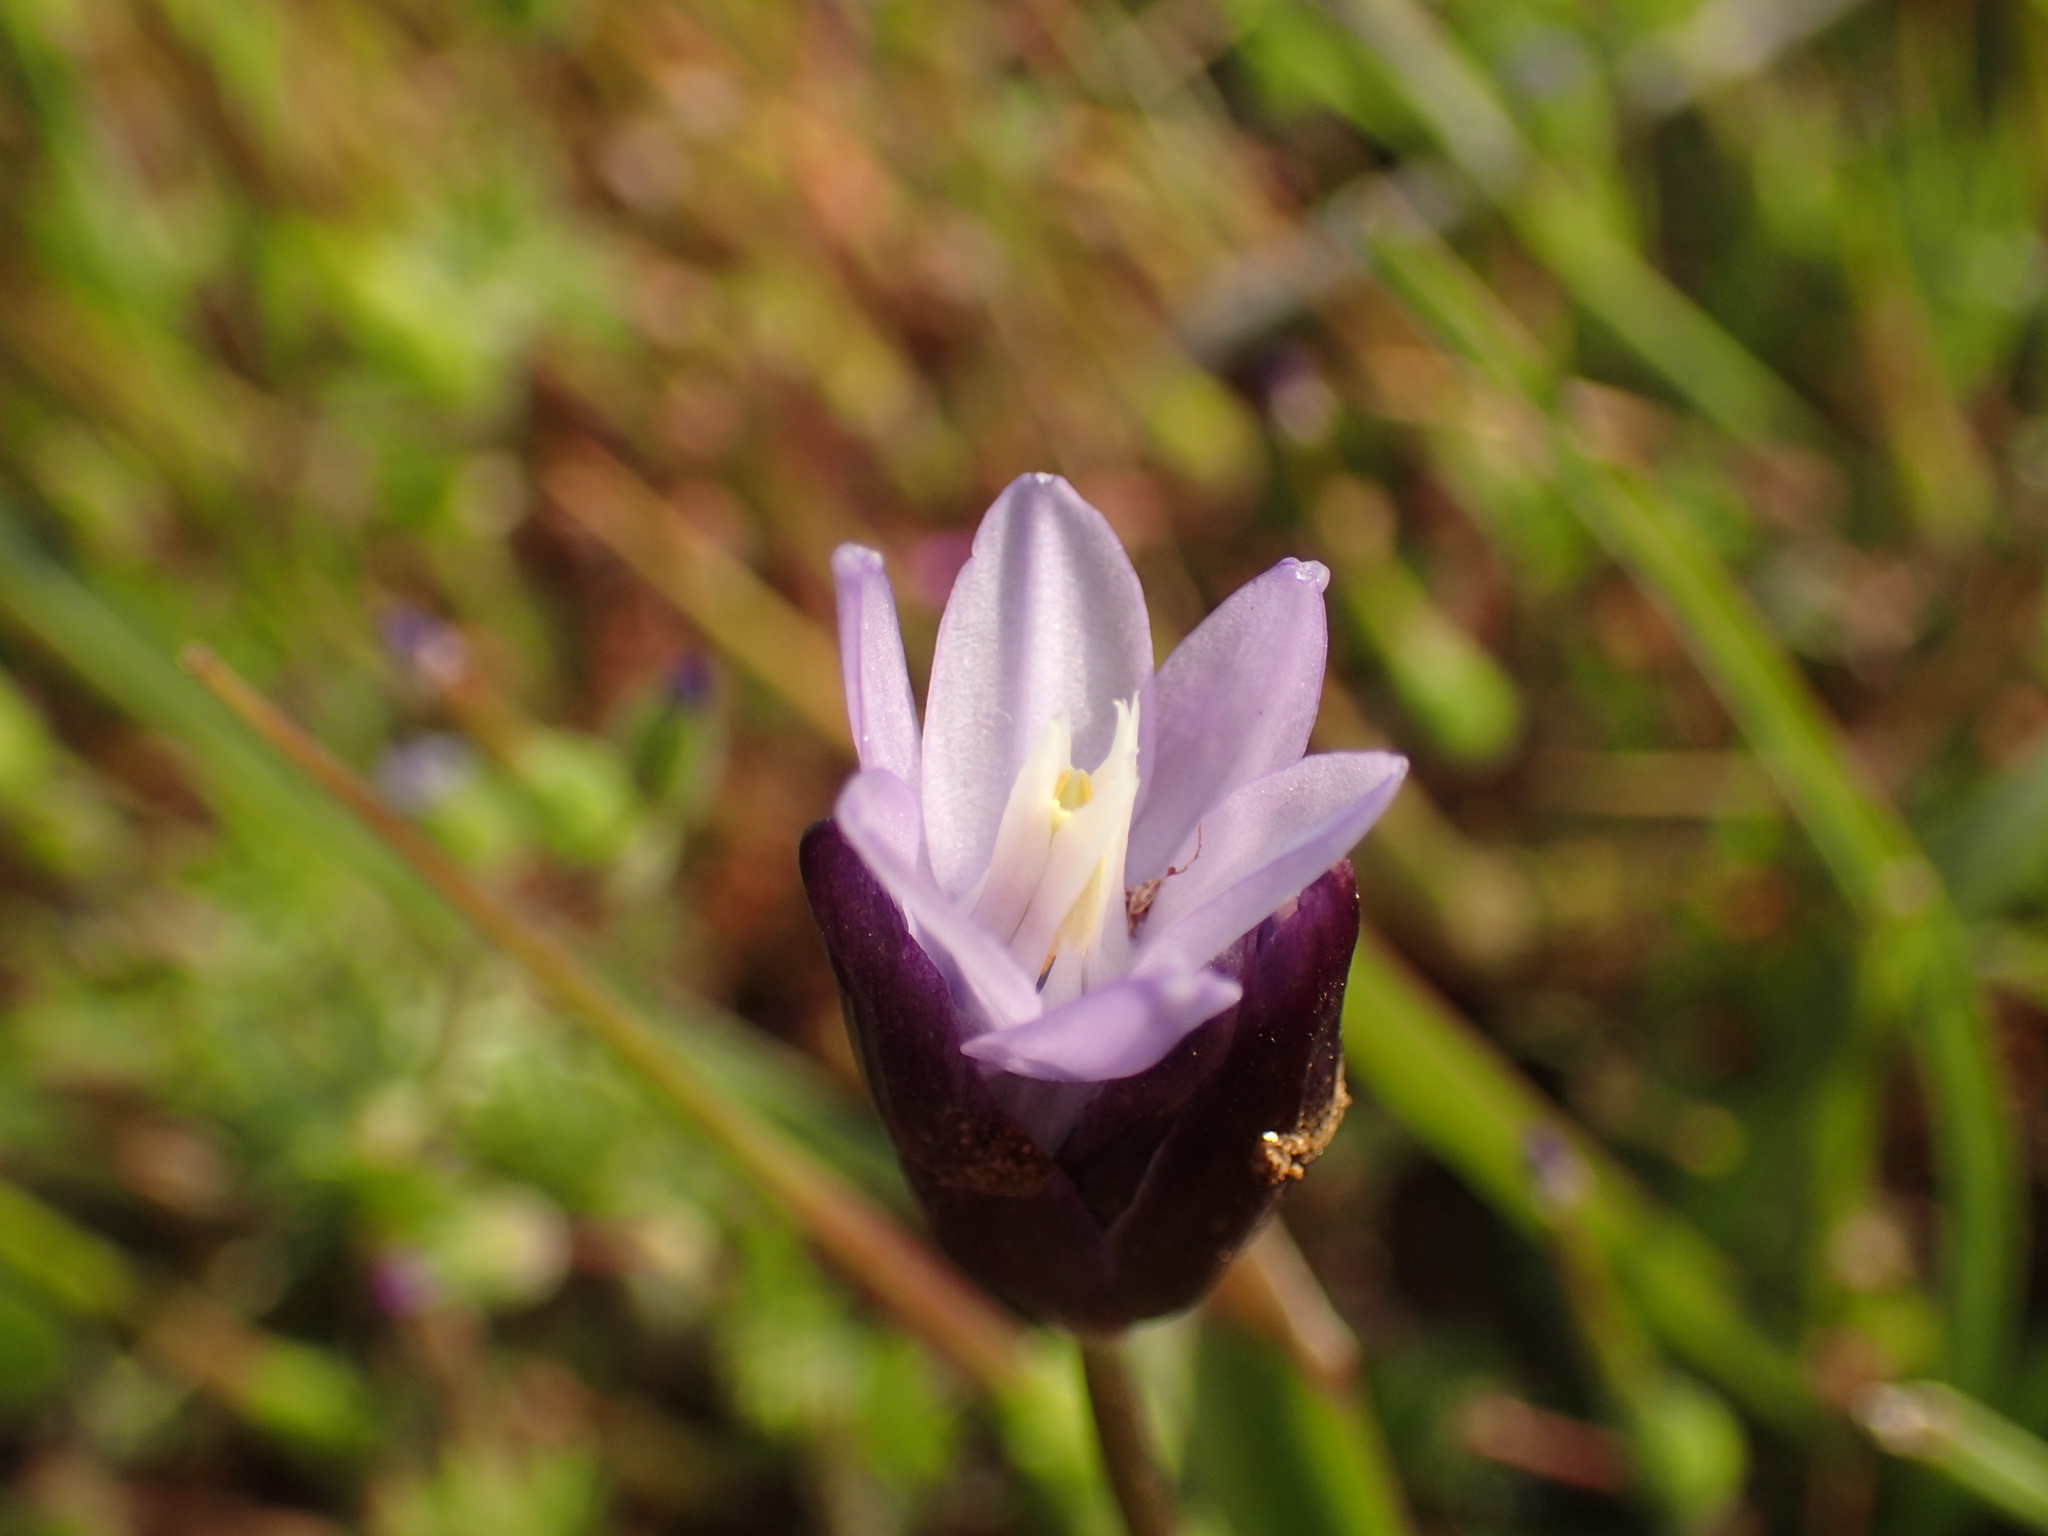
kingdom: Plantae
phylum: Tracheophyta
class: Liliopsida
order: Asparagales
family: Asparagaceae
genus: Dipterostemon
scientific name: Dipterostemon capitatus
